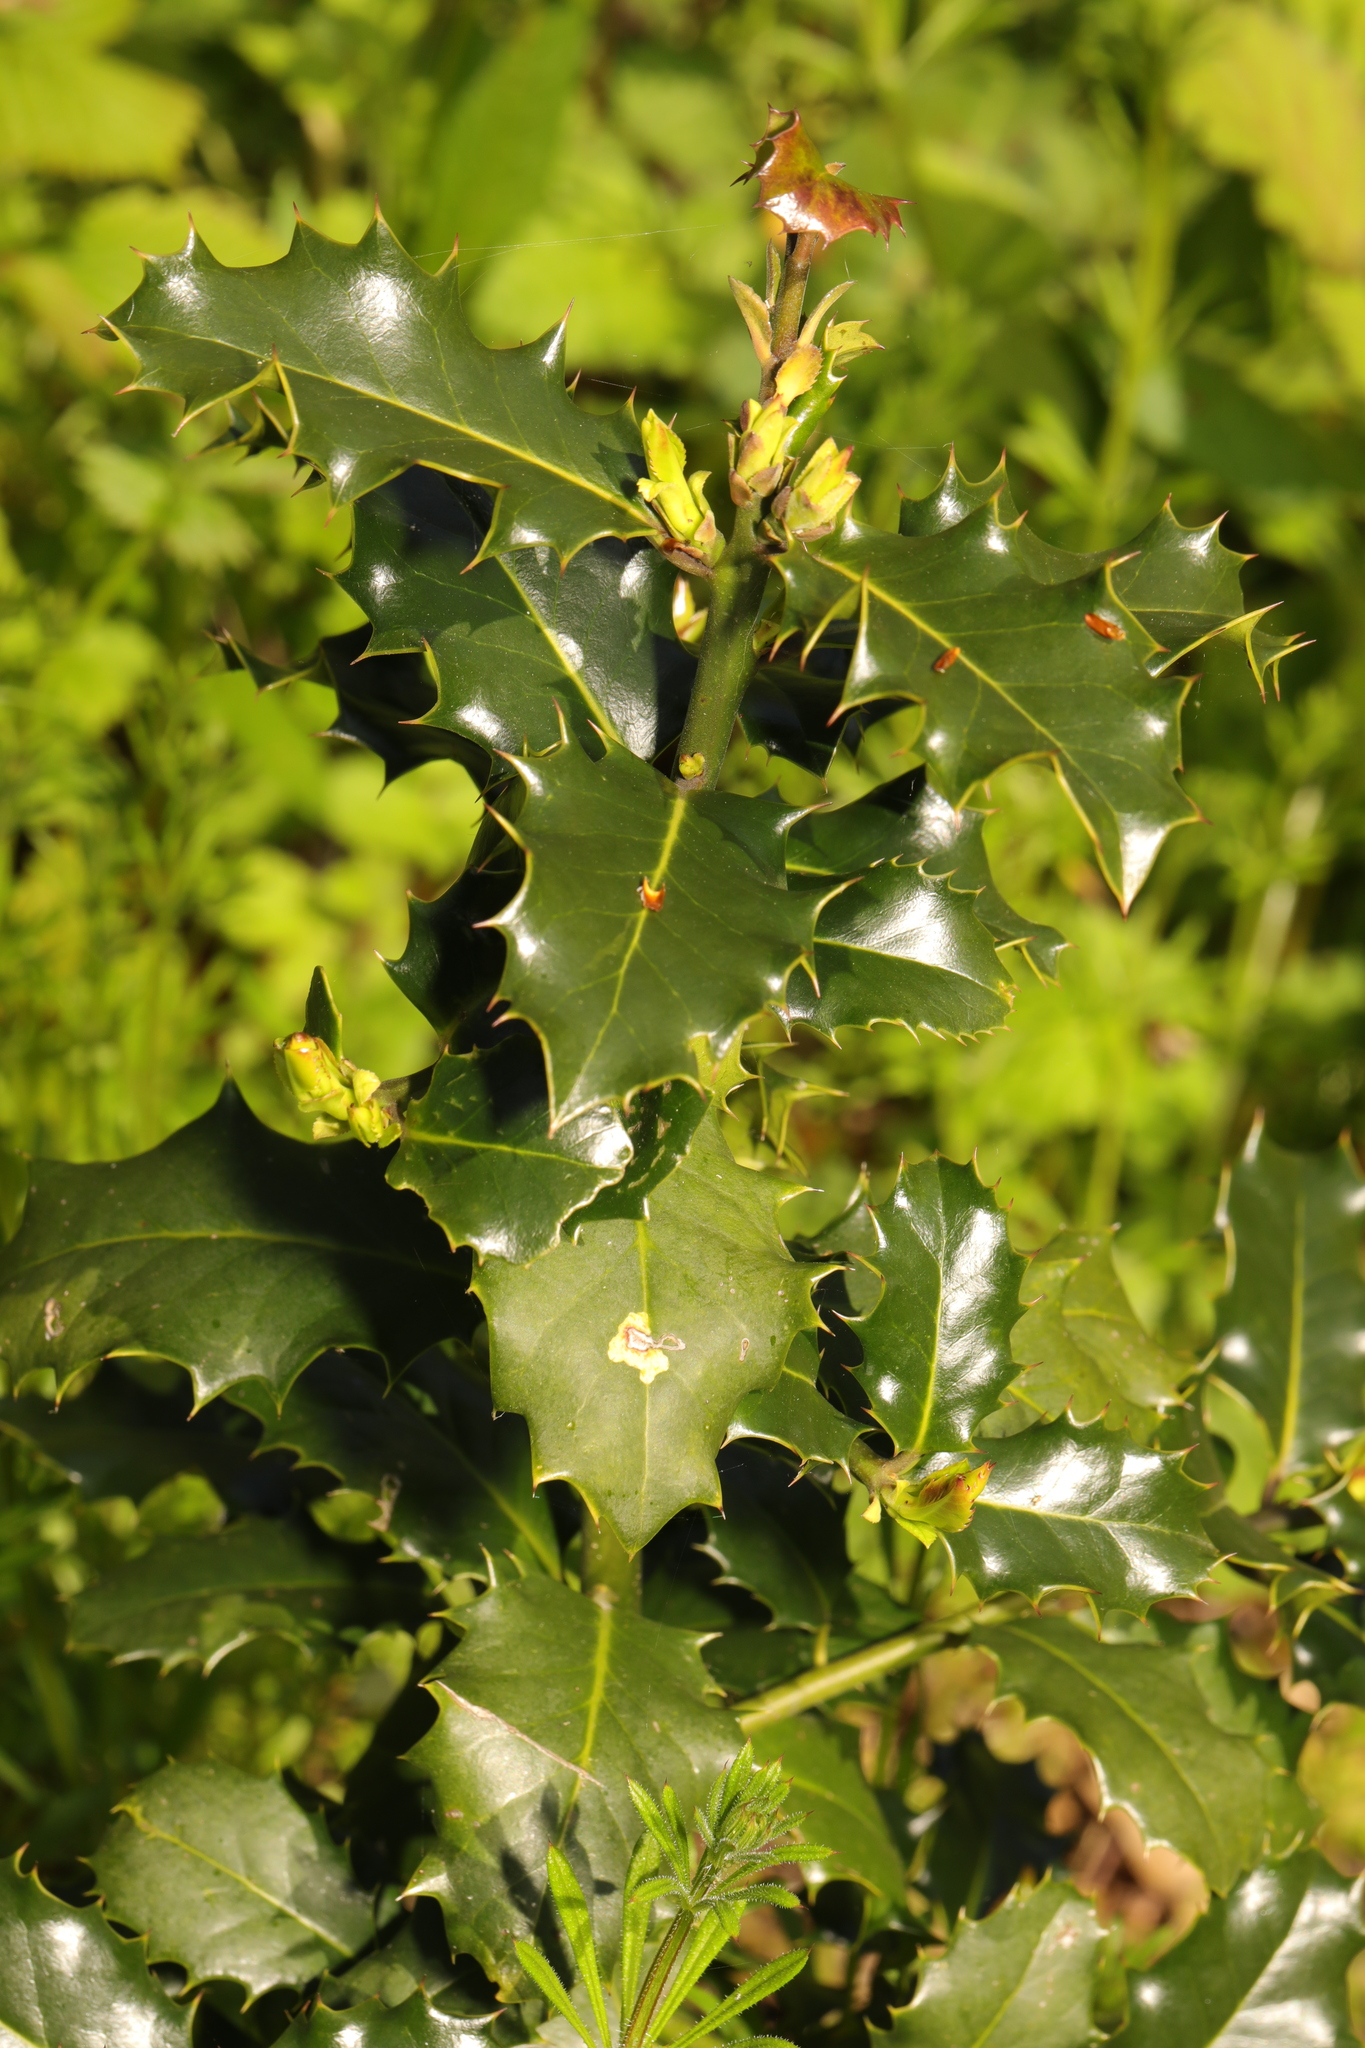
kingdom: Plantae
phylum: Tracheophyta
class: Magnoliopsida
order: Aquifoliales
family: Aquifoliaceae
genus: Ilex
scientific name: Ilex aquifolium
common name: English holly
